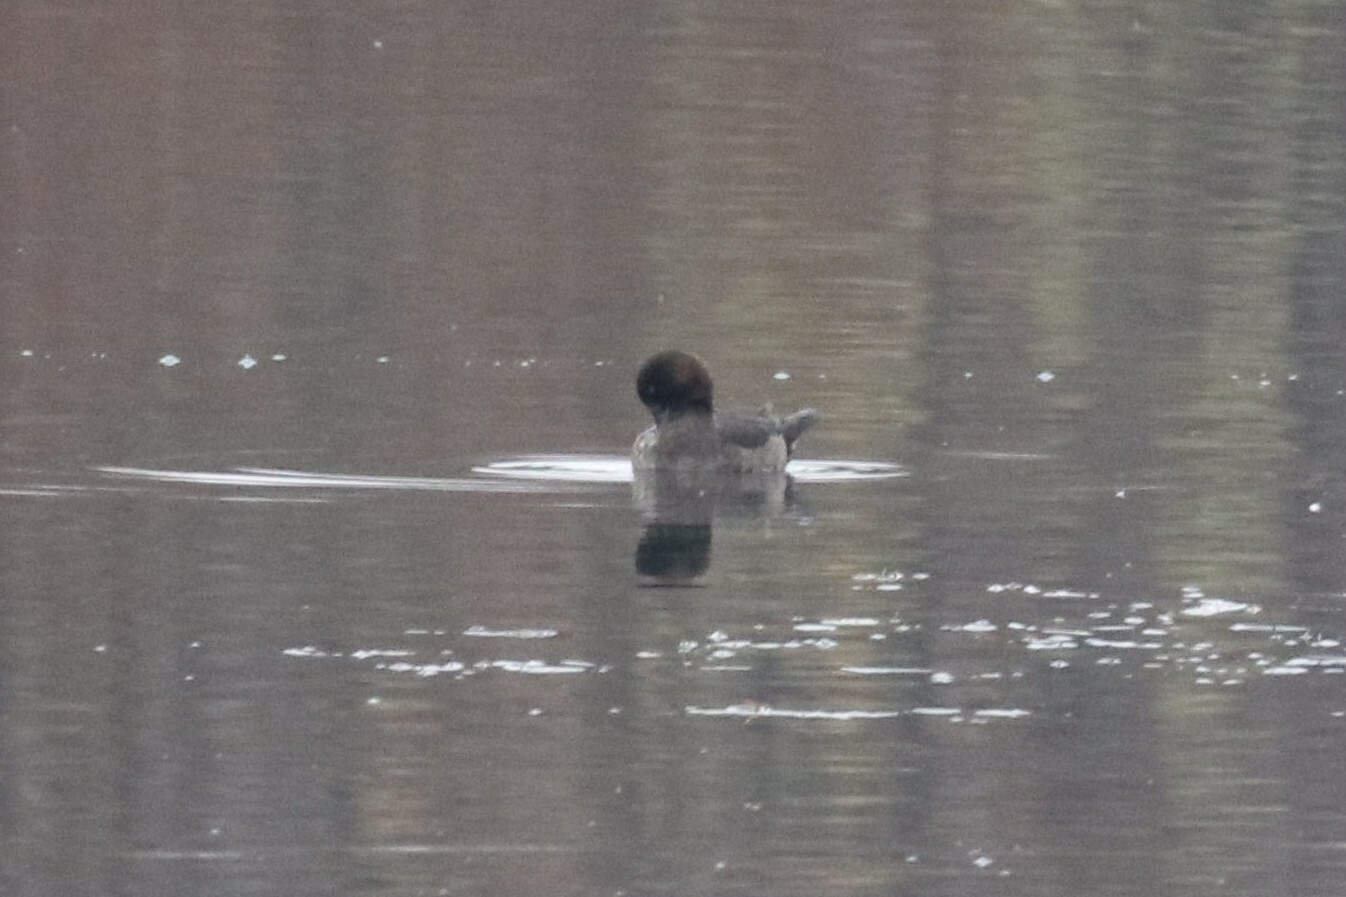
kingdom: Animalia
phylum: Chordata
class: Aves
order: Anseriformes
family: Anatidae
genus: Aythya
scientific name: Aythya fuligula
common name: Tufted duck
